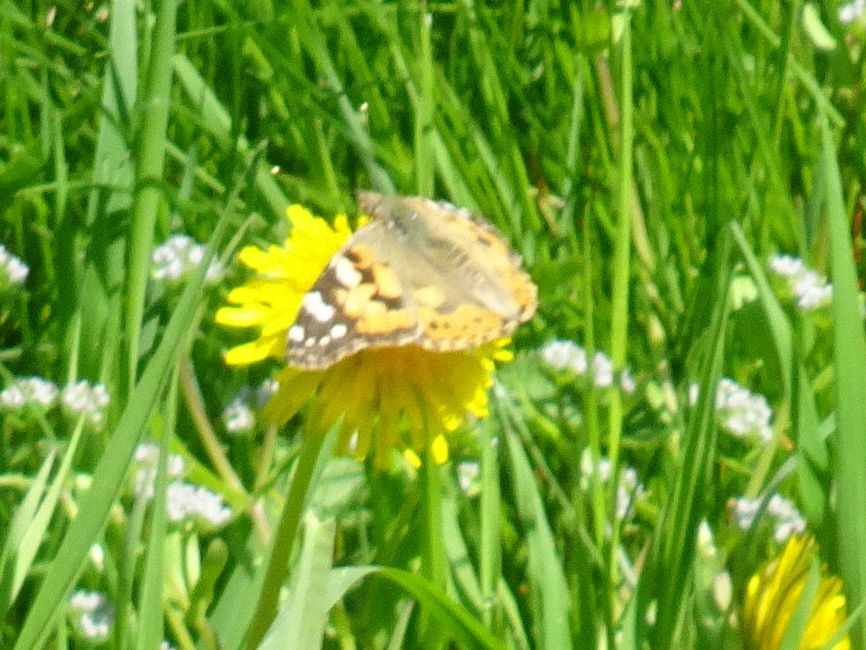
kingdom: Animalia
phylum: Arthropoda
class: Insecta
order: Lepidoptera
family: Nymphalidae
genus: Vanessa
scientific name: Vanessa cardui
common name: Painted lady
